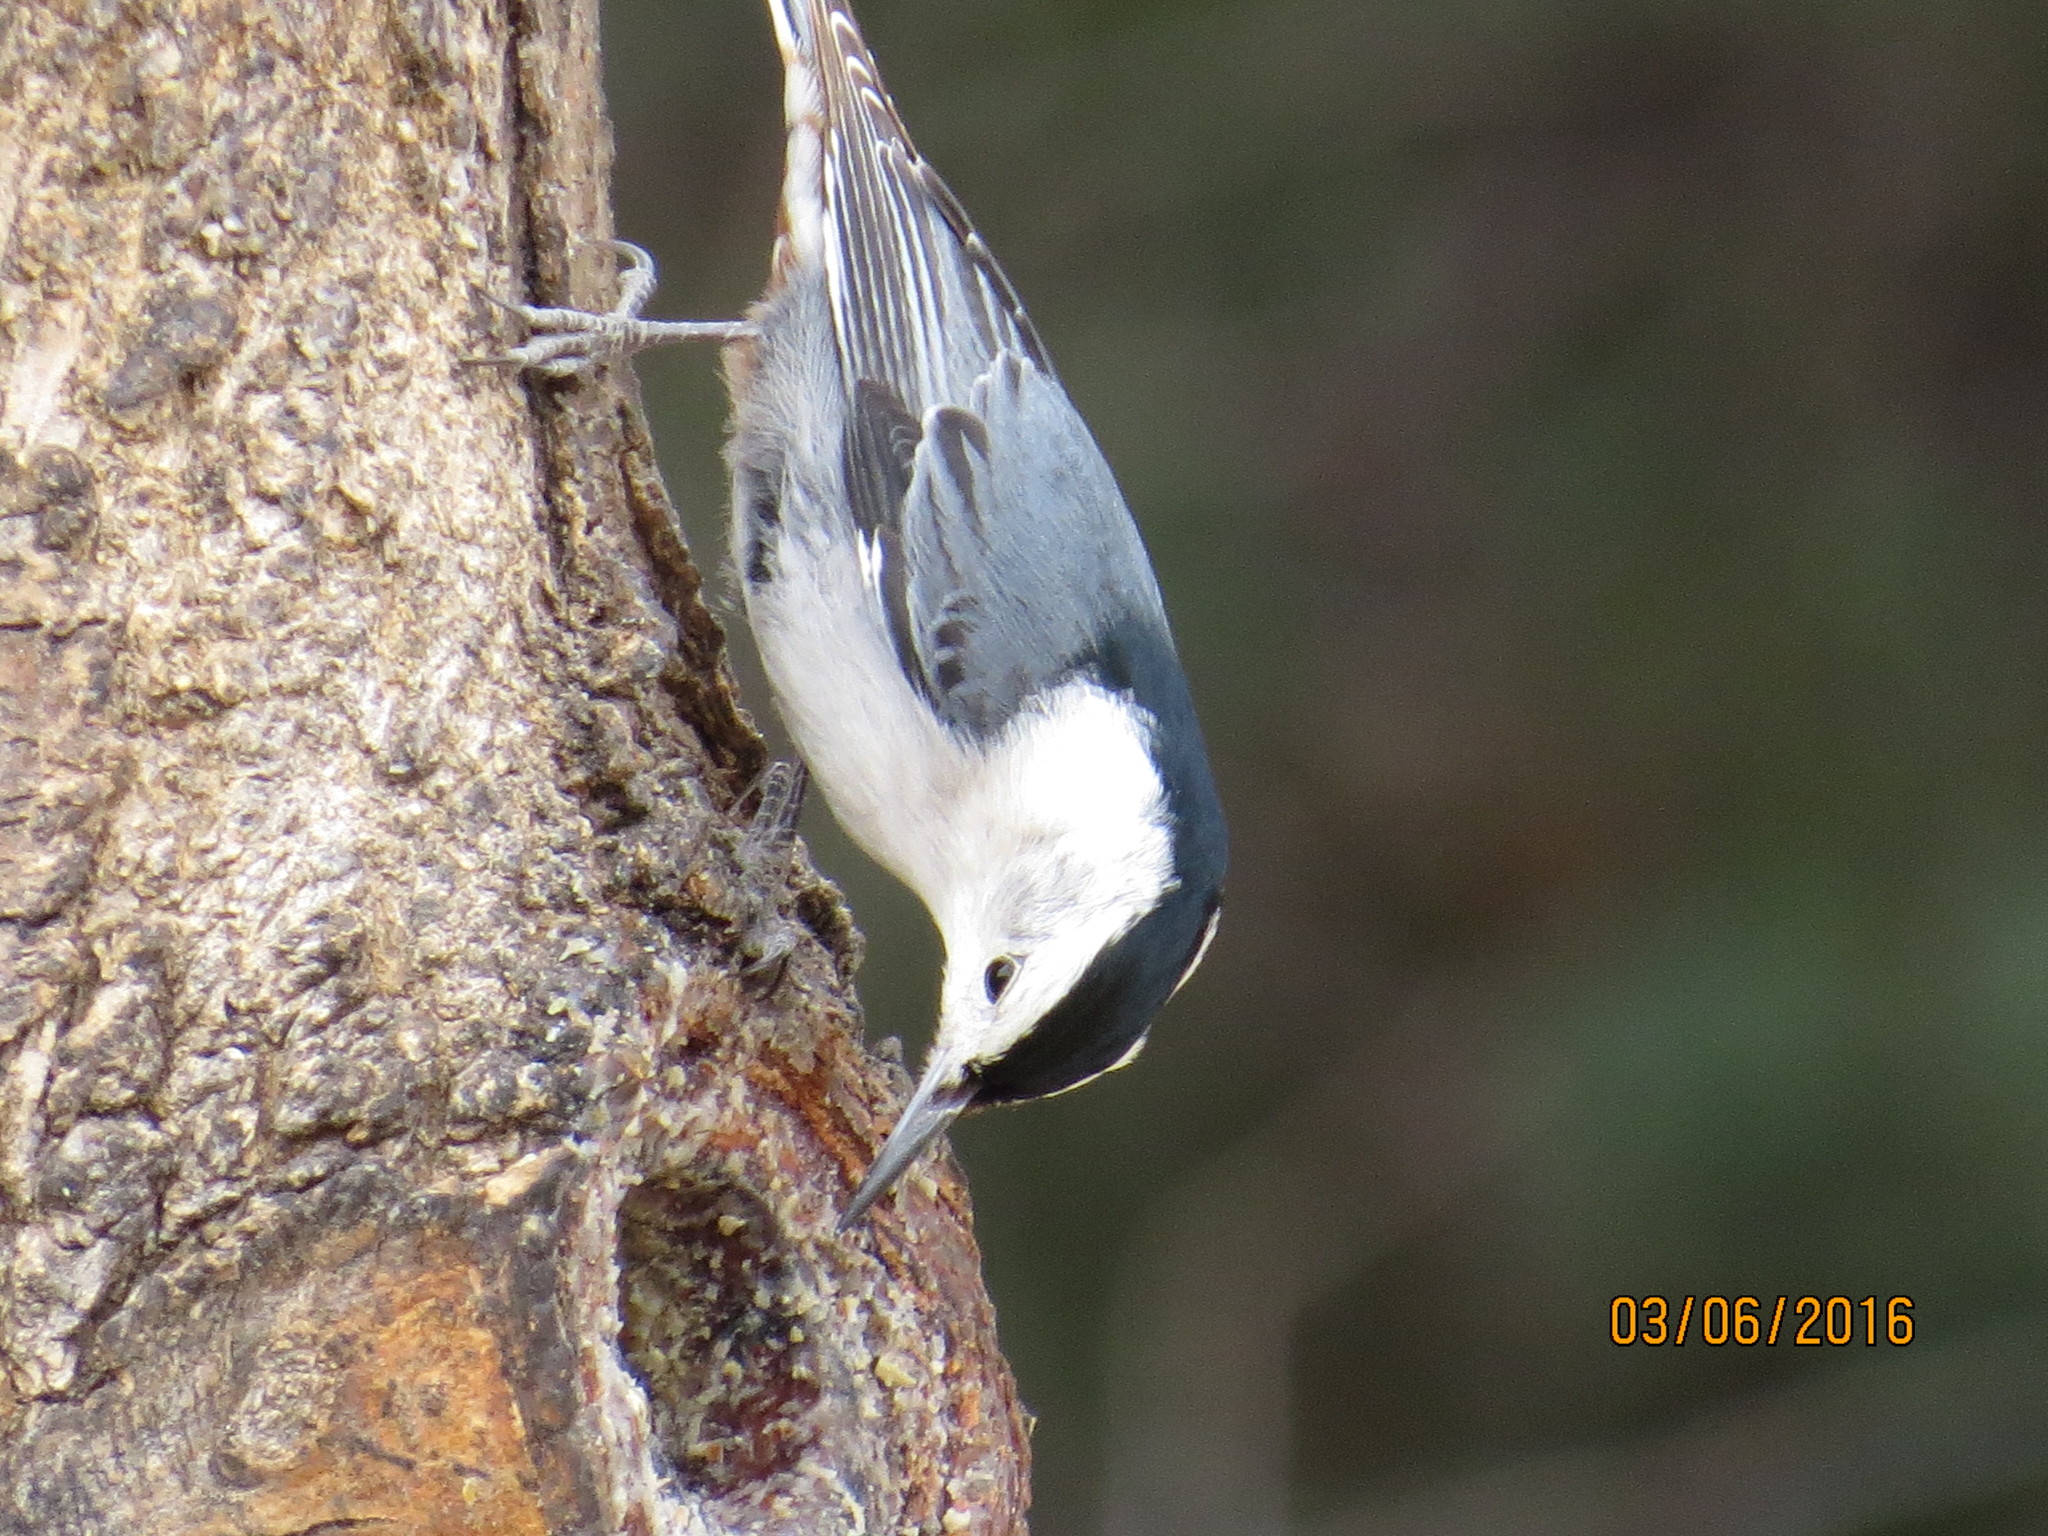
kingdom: Animalia
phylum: Chordata
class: Aves
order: Passeriformes
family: Sittidae
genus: Sitta
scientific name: Sitta carolinensis
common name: White-breasted nuthatch
